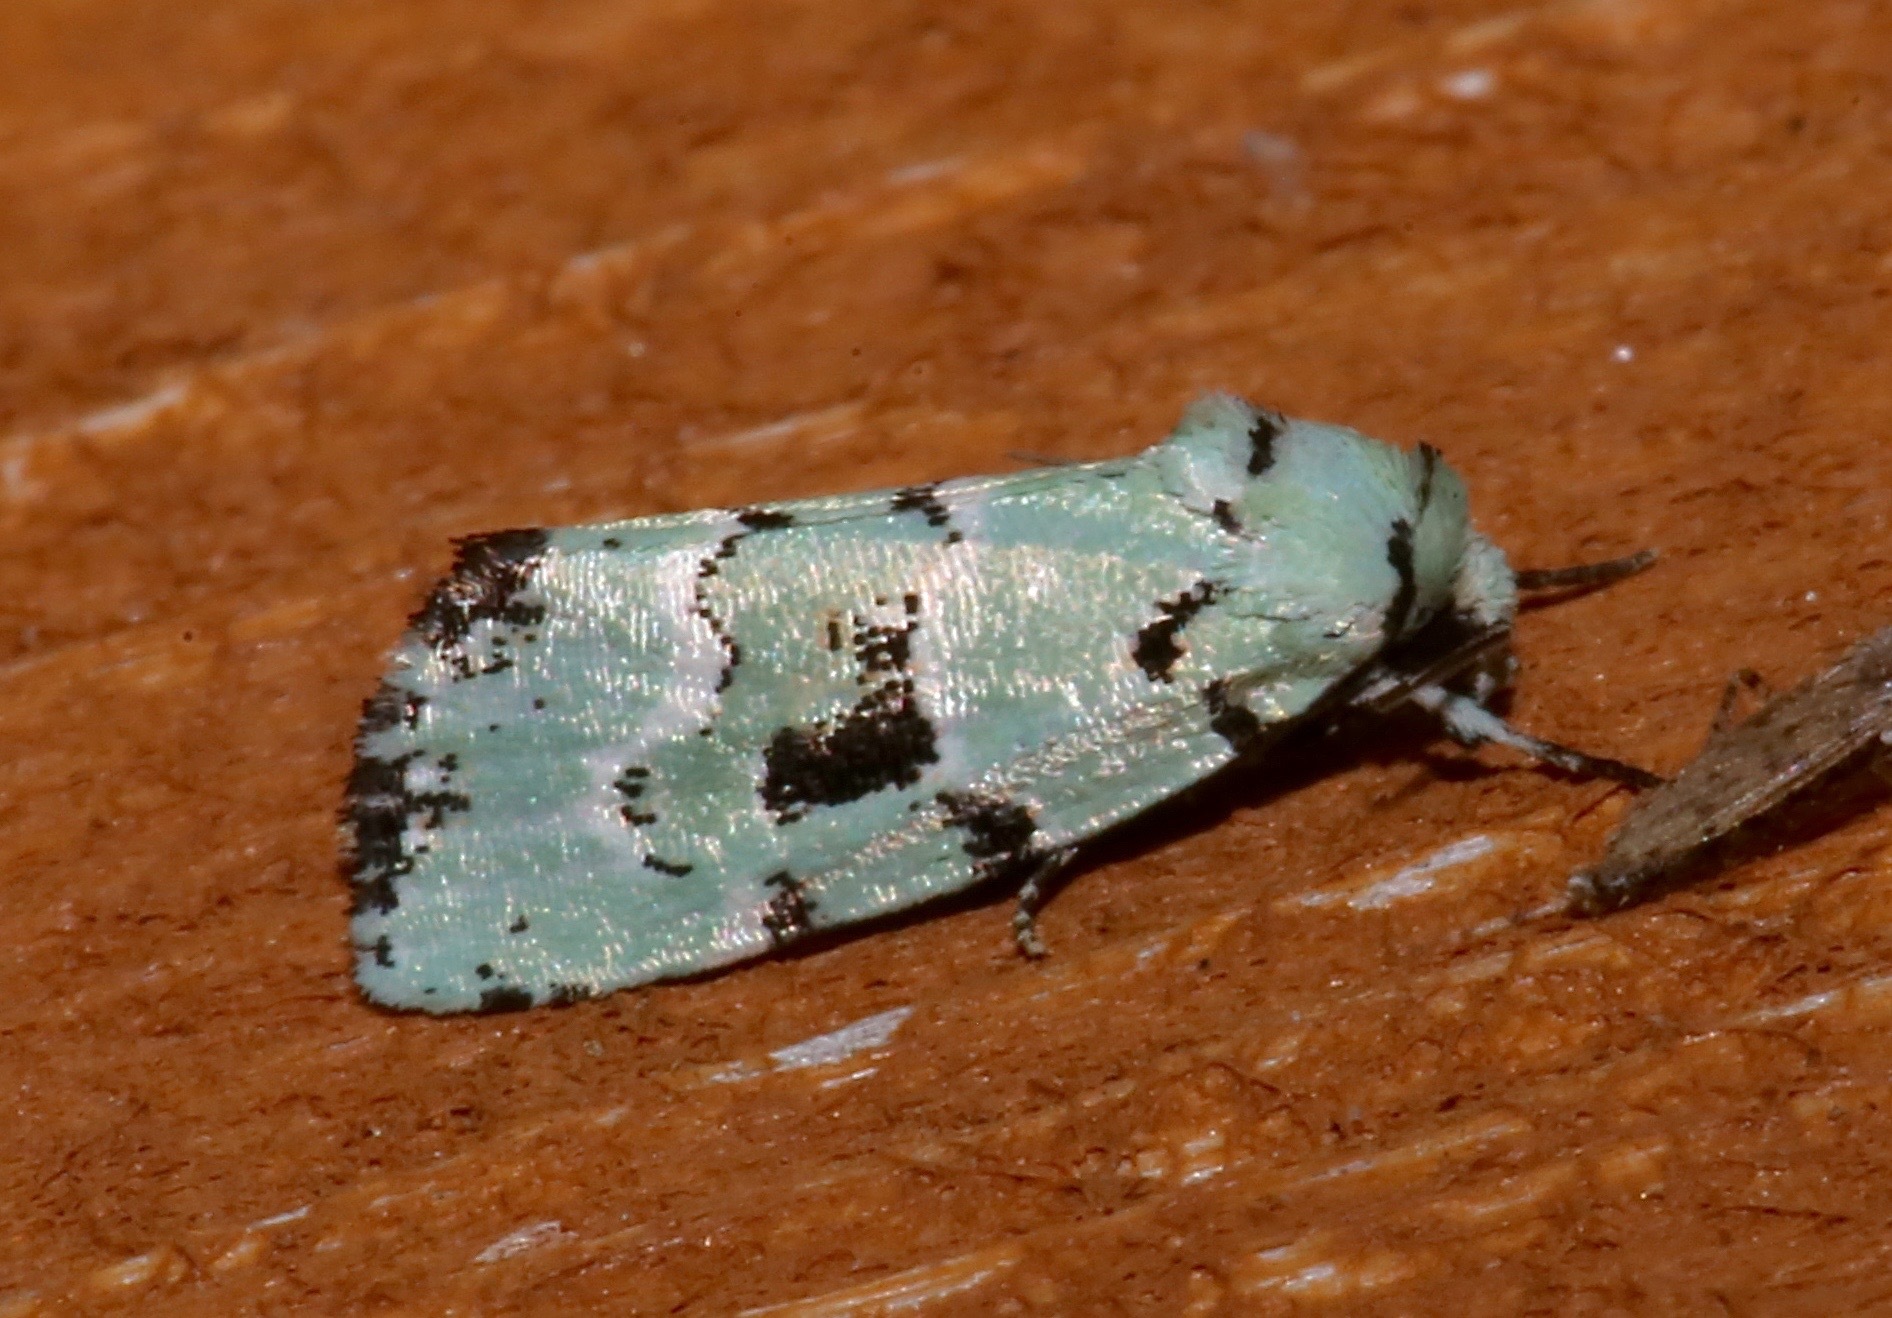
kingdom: Animalia
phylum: Arthropoda
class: Insecta
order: Lepidoptera
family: Noctuidae
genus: Elaphria
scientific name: Elaphria cyanympha
